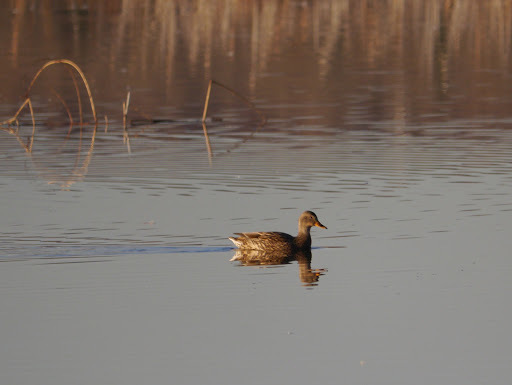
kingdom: Animalia
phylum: Chordata
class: Aves
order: Anseriformes
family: Anatidae
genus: Anas
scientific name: Anas platyrhynchos
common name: Mallard
